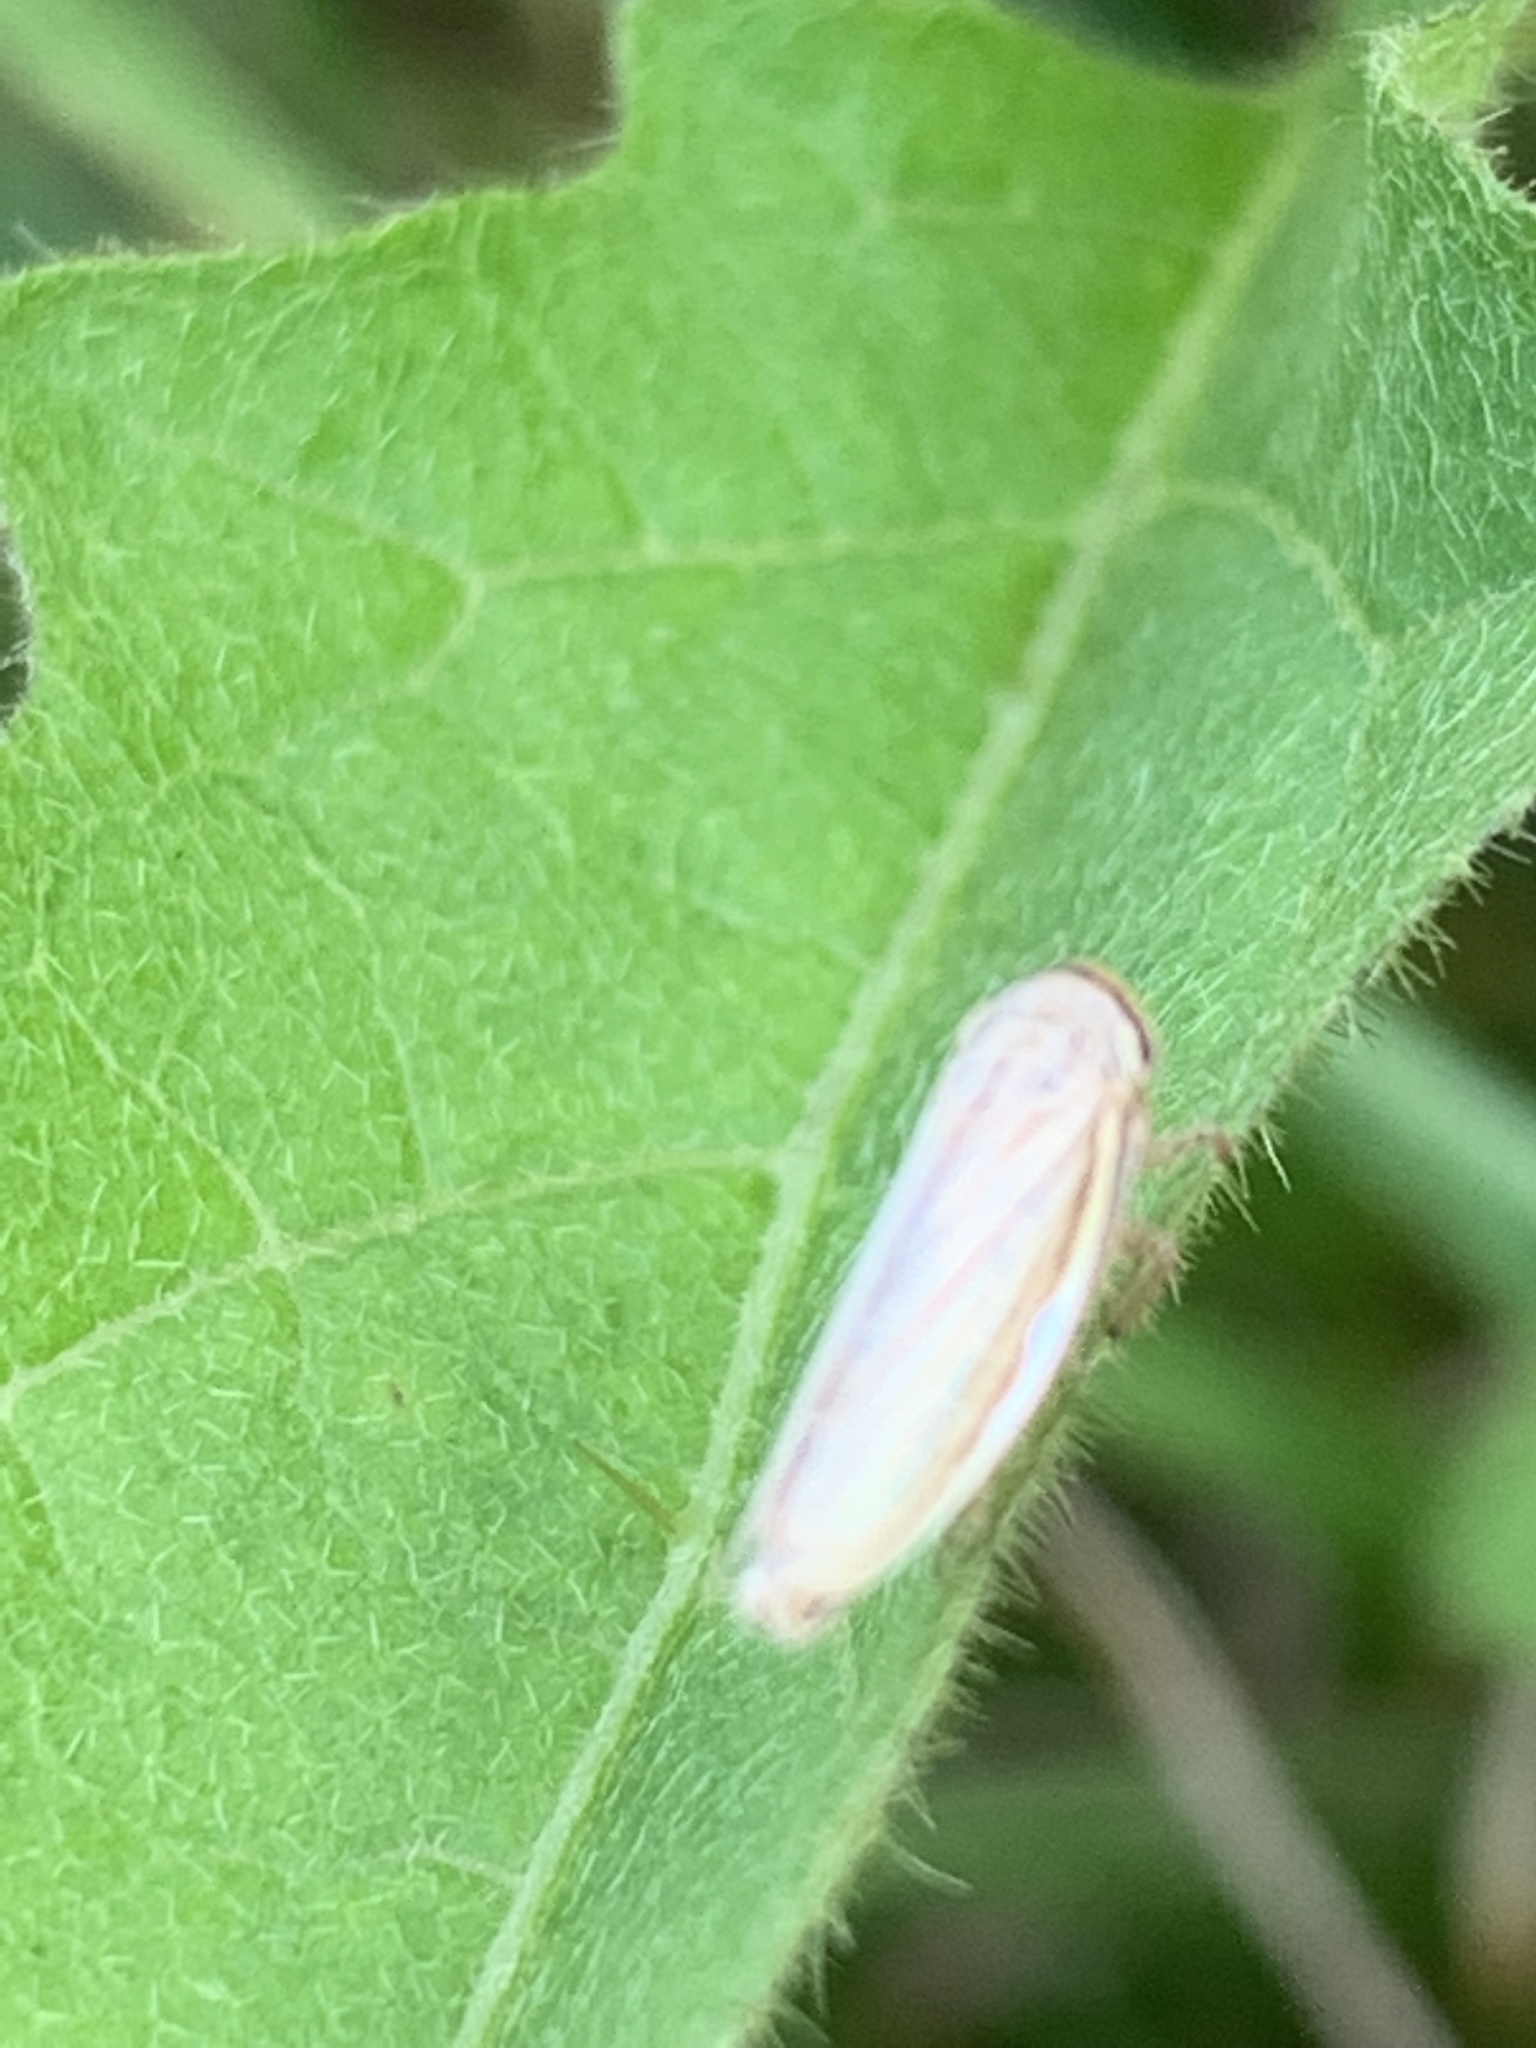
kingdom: Animalia
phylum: Arthropoda
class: Insecta
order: Hemiptera
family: Cicadellidae
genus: Athysanus
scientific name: Athysanus argentarius
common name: Silver leafhopper
